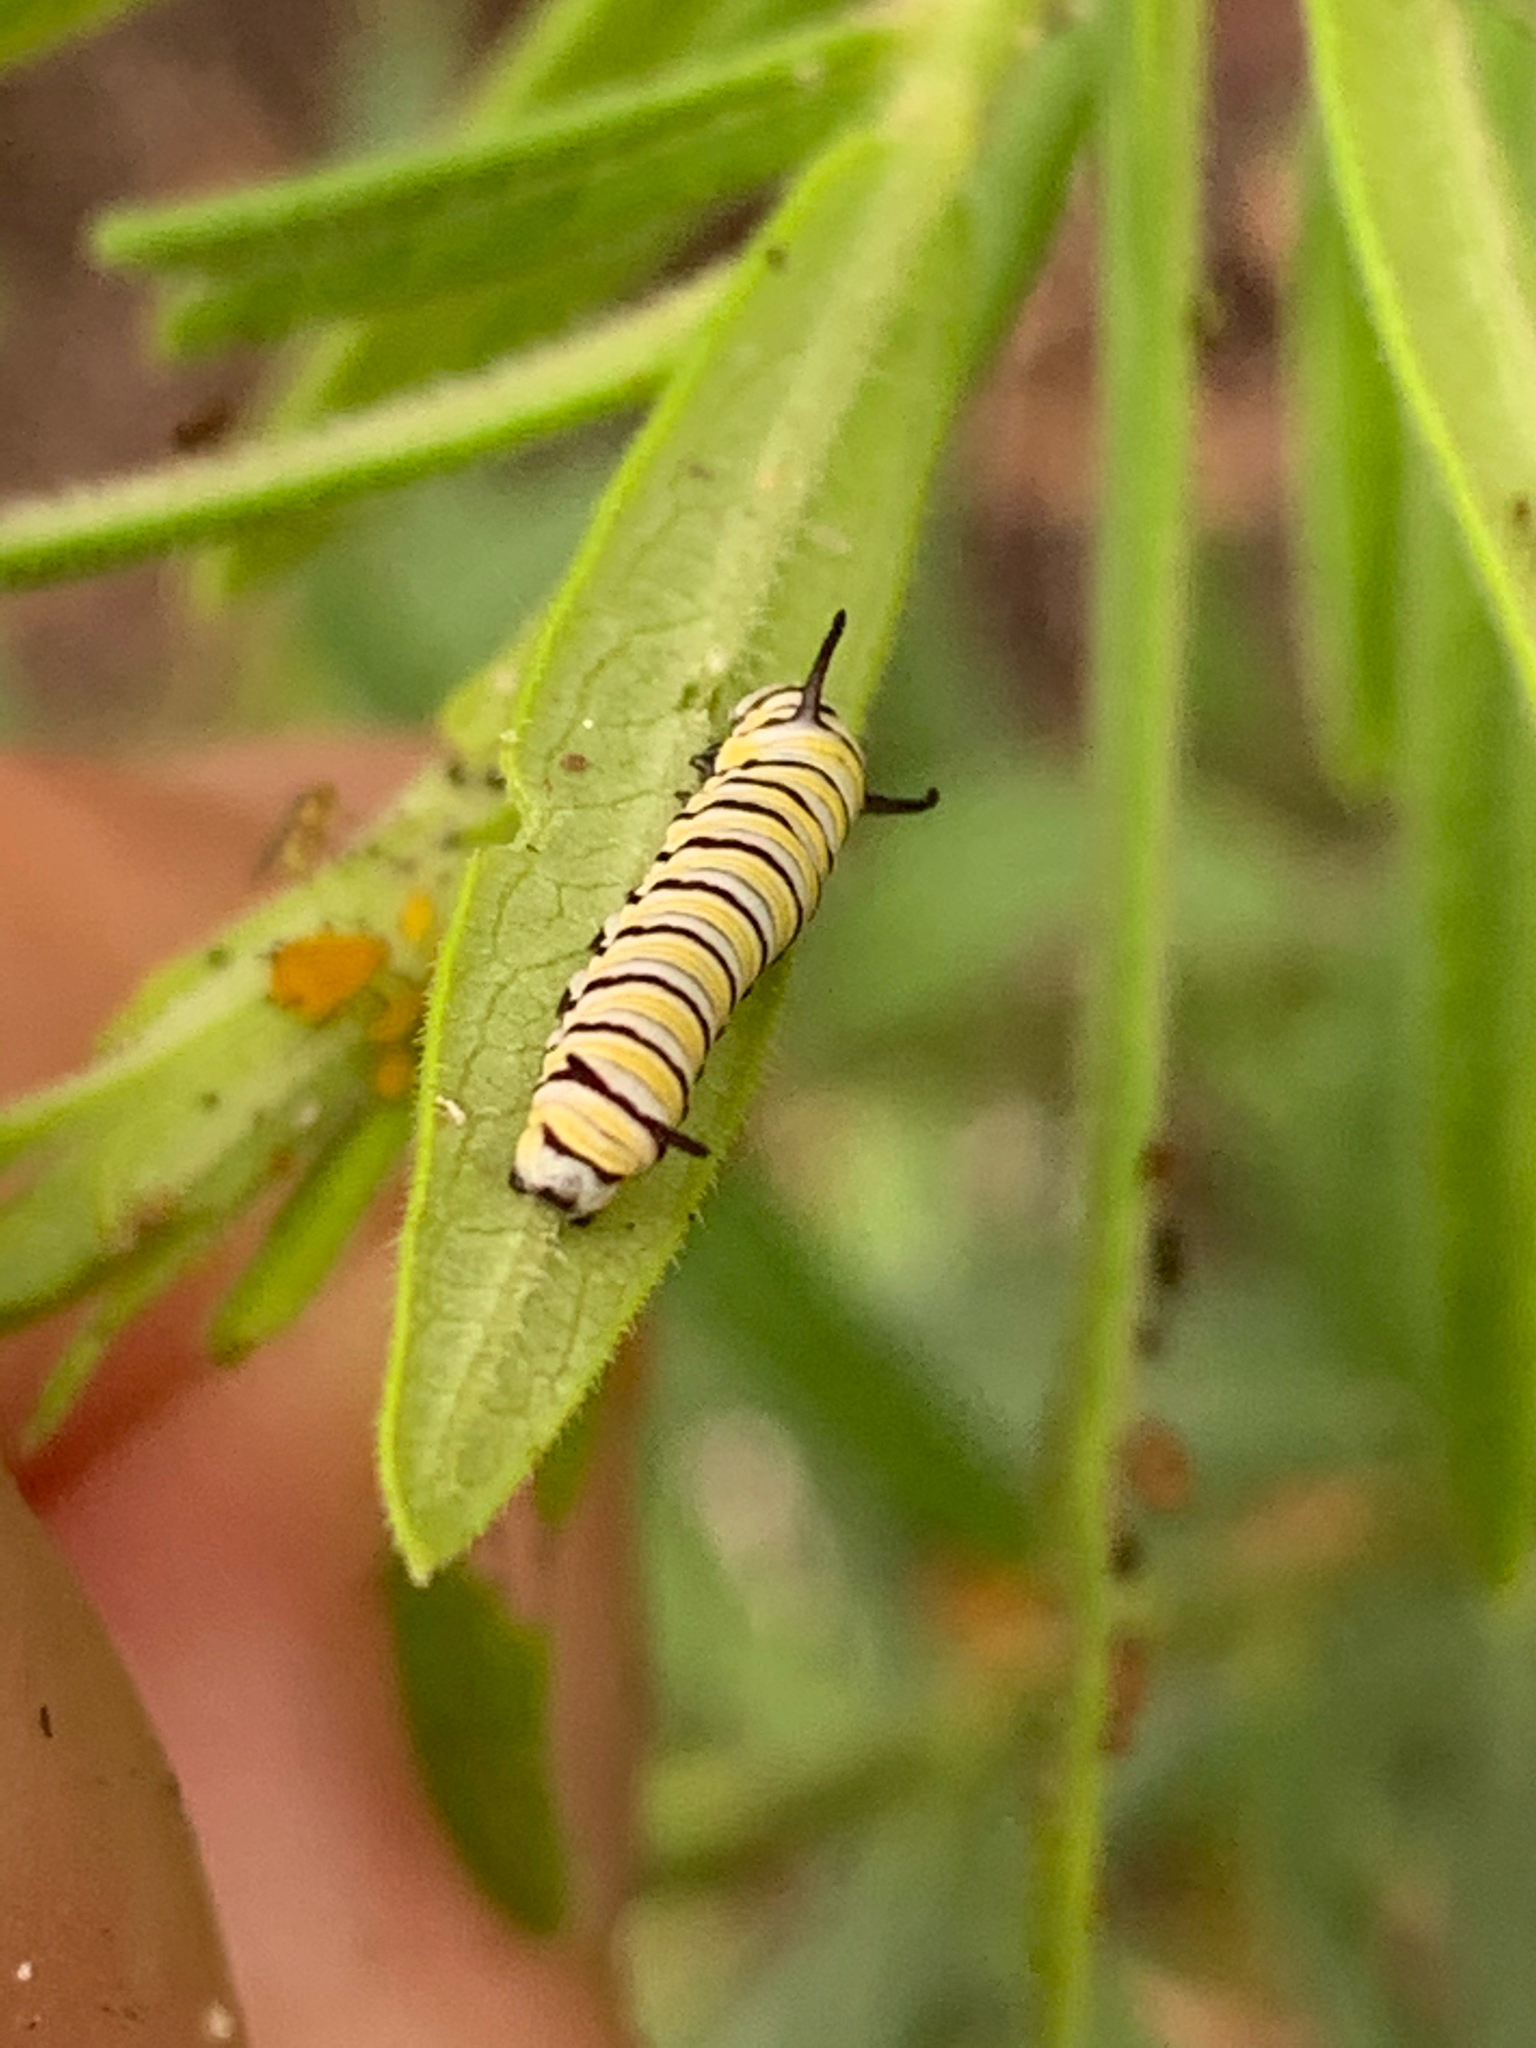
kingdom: Animalia
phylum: Arthropoda
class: Insecta
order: Lepidoptera
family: Nymphalidae
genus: Danaus
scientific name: Danaus plexippus
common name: Monarch
